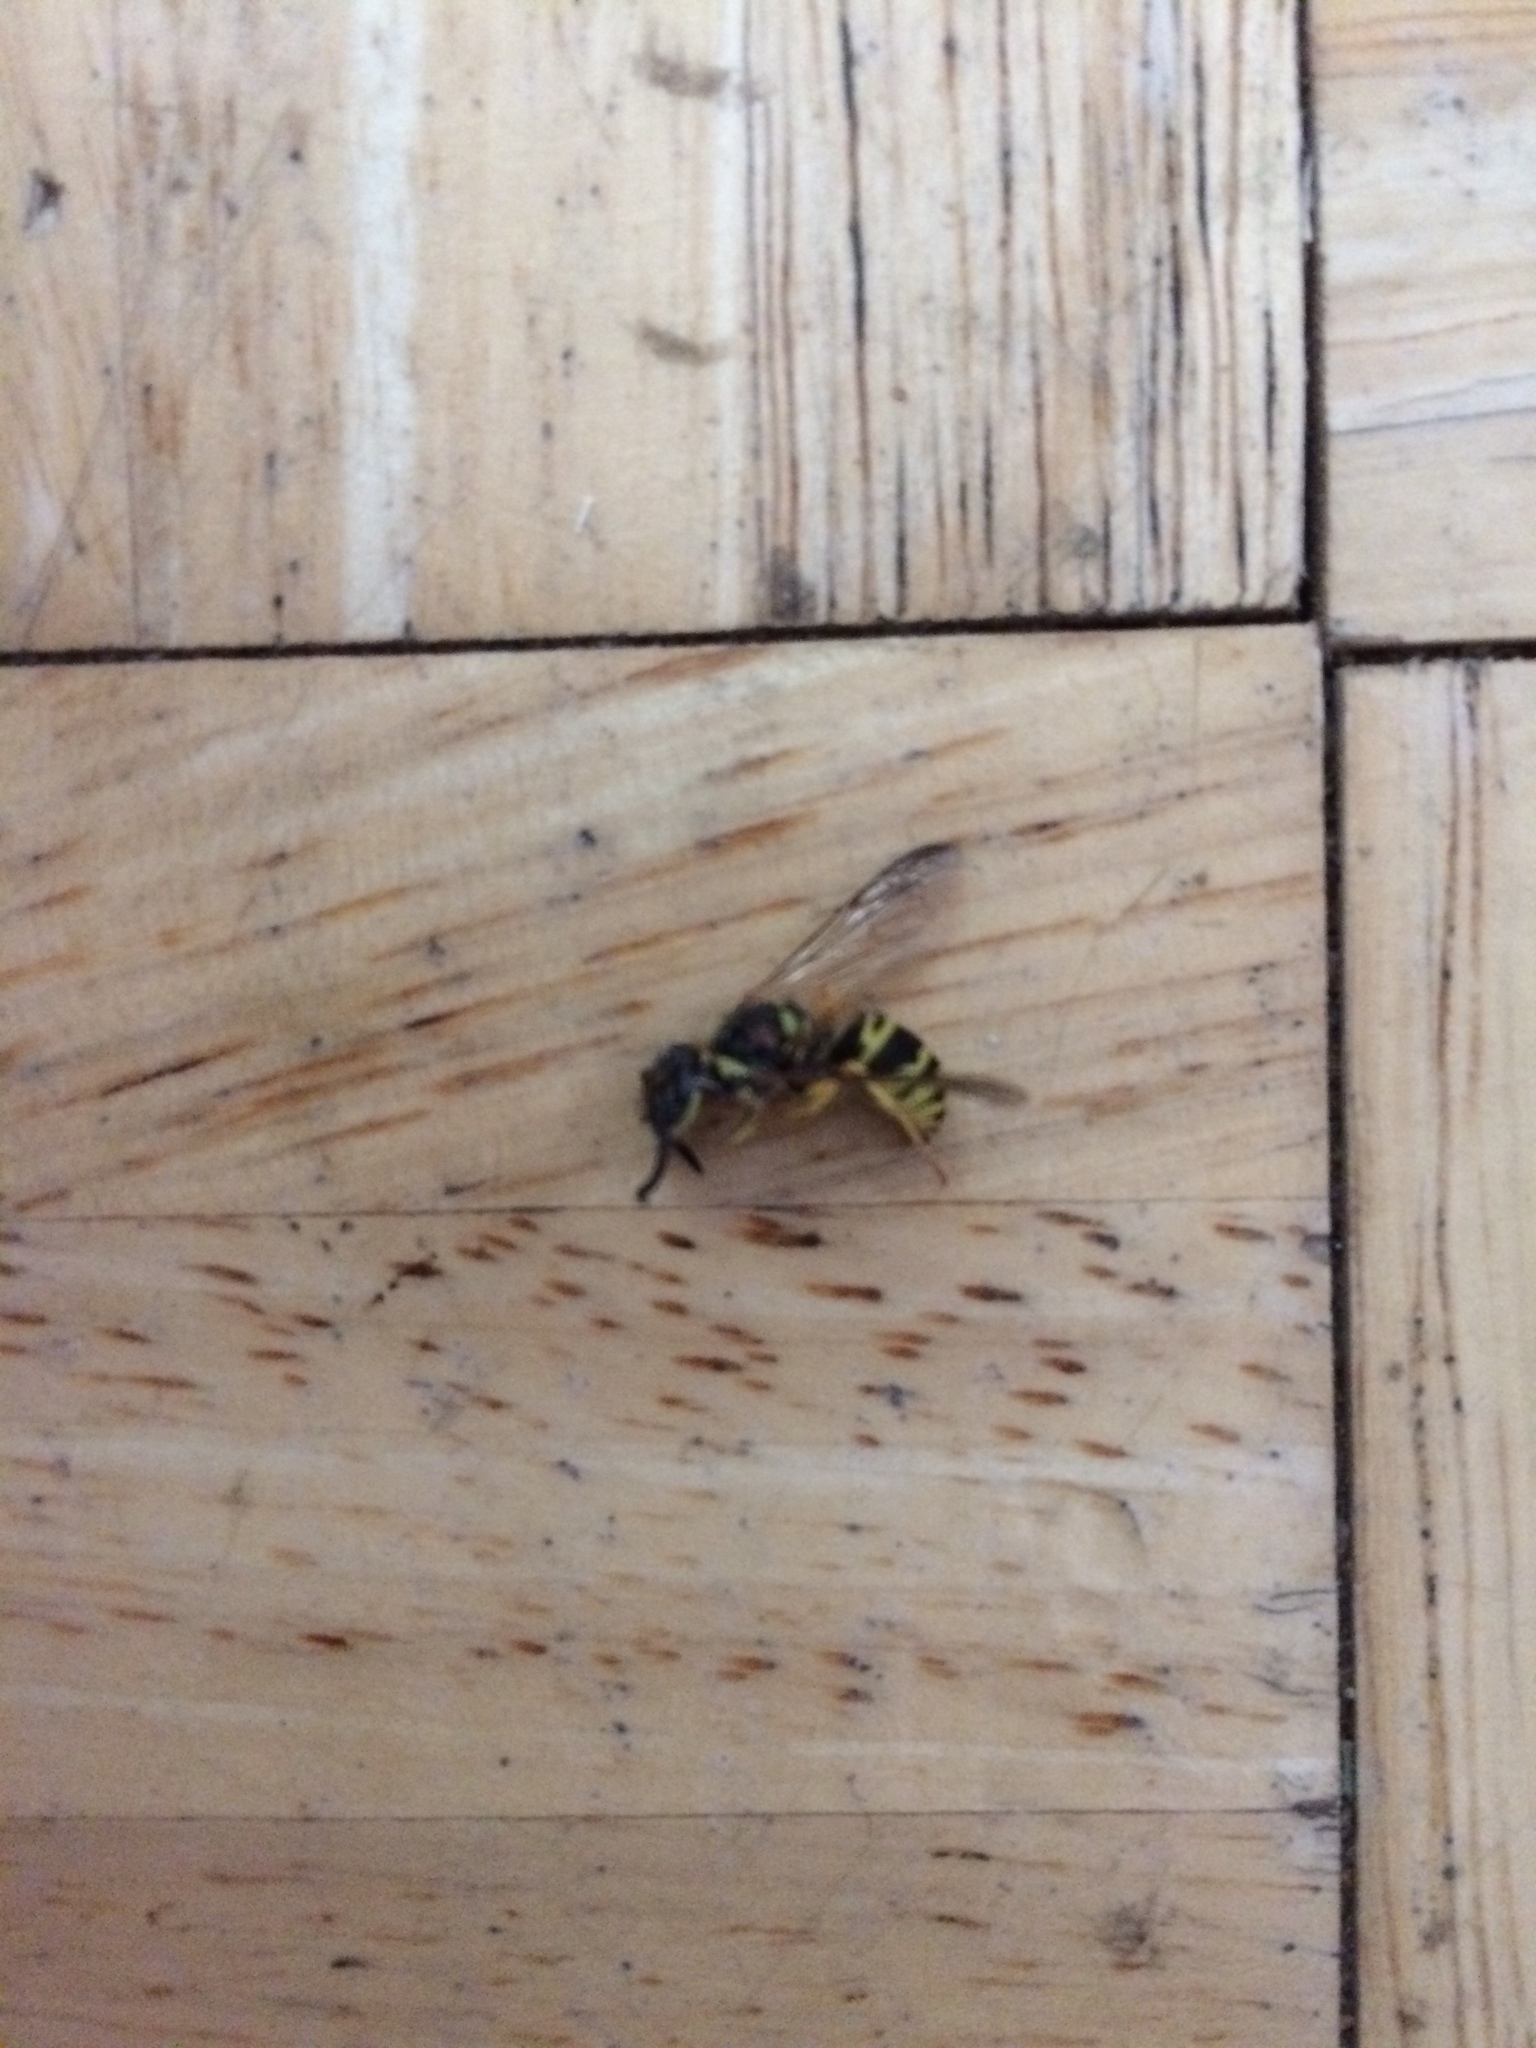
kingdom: Animalia
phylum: Arthropoda
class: Insecta
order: Hymenoptera
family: Vespidae
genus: Vespula
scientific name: Vespula maculifrons
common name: Eastern yellowjacket
